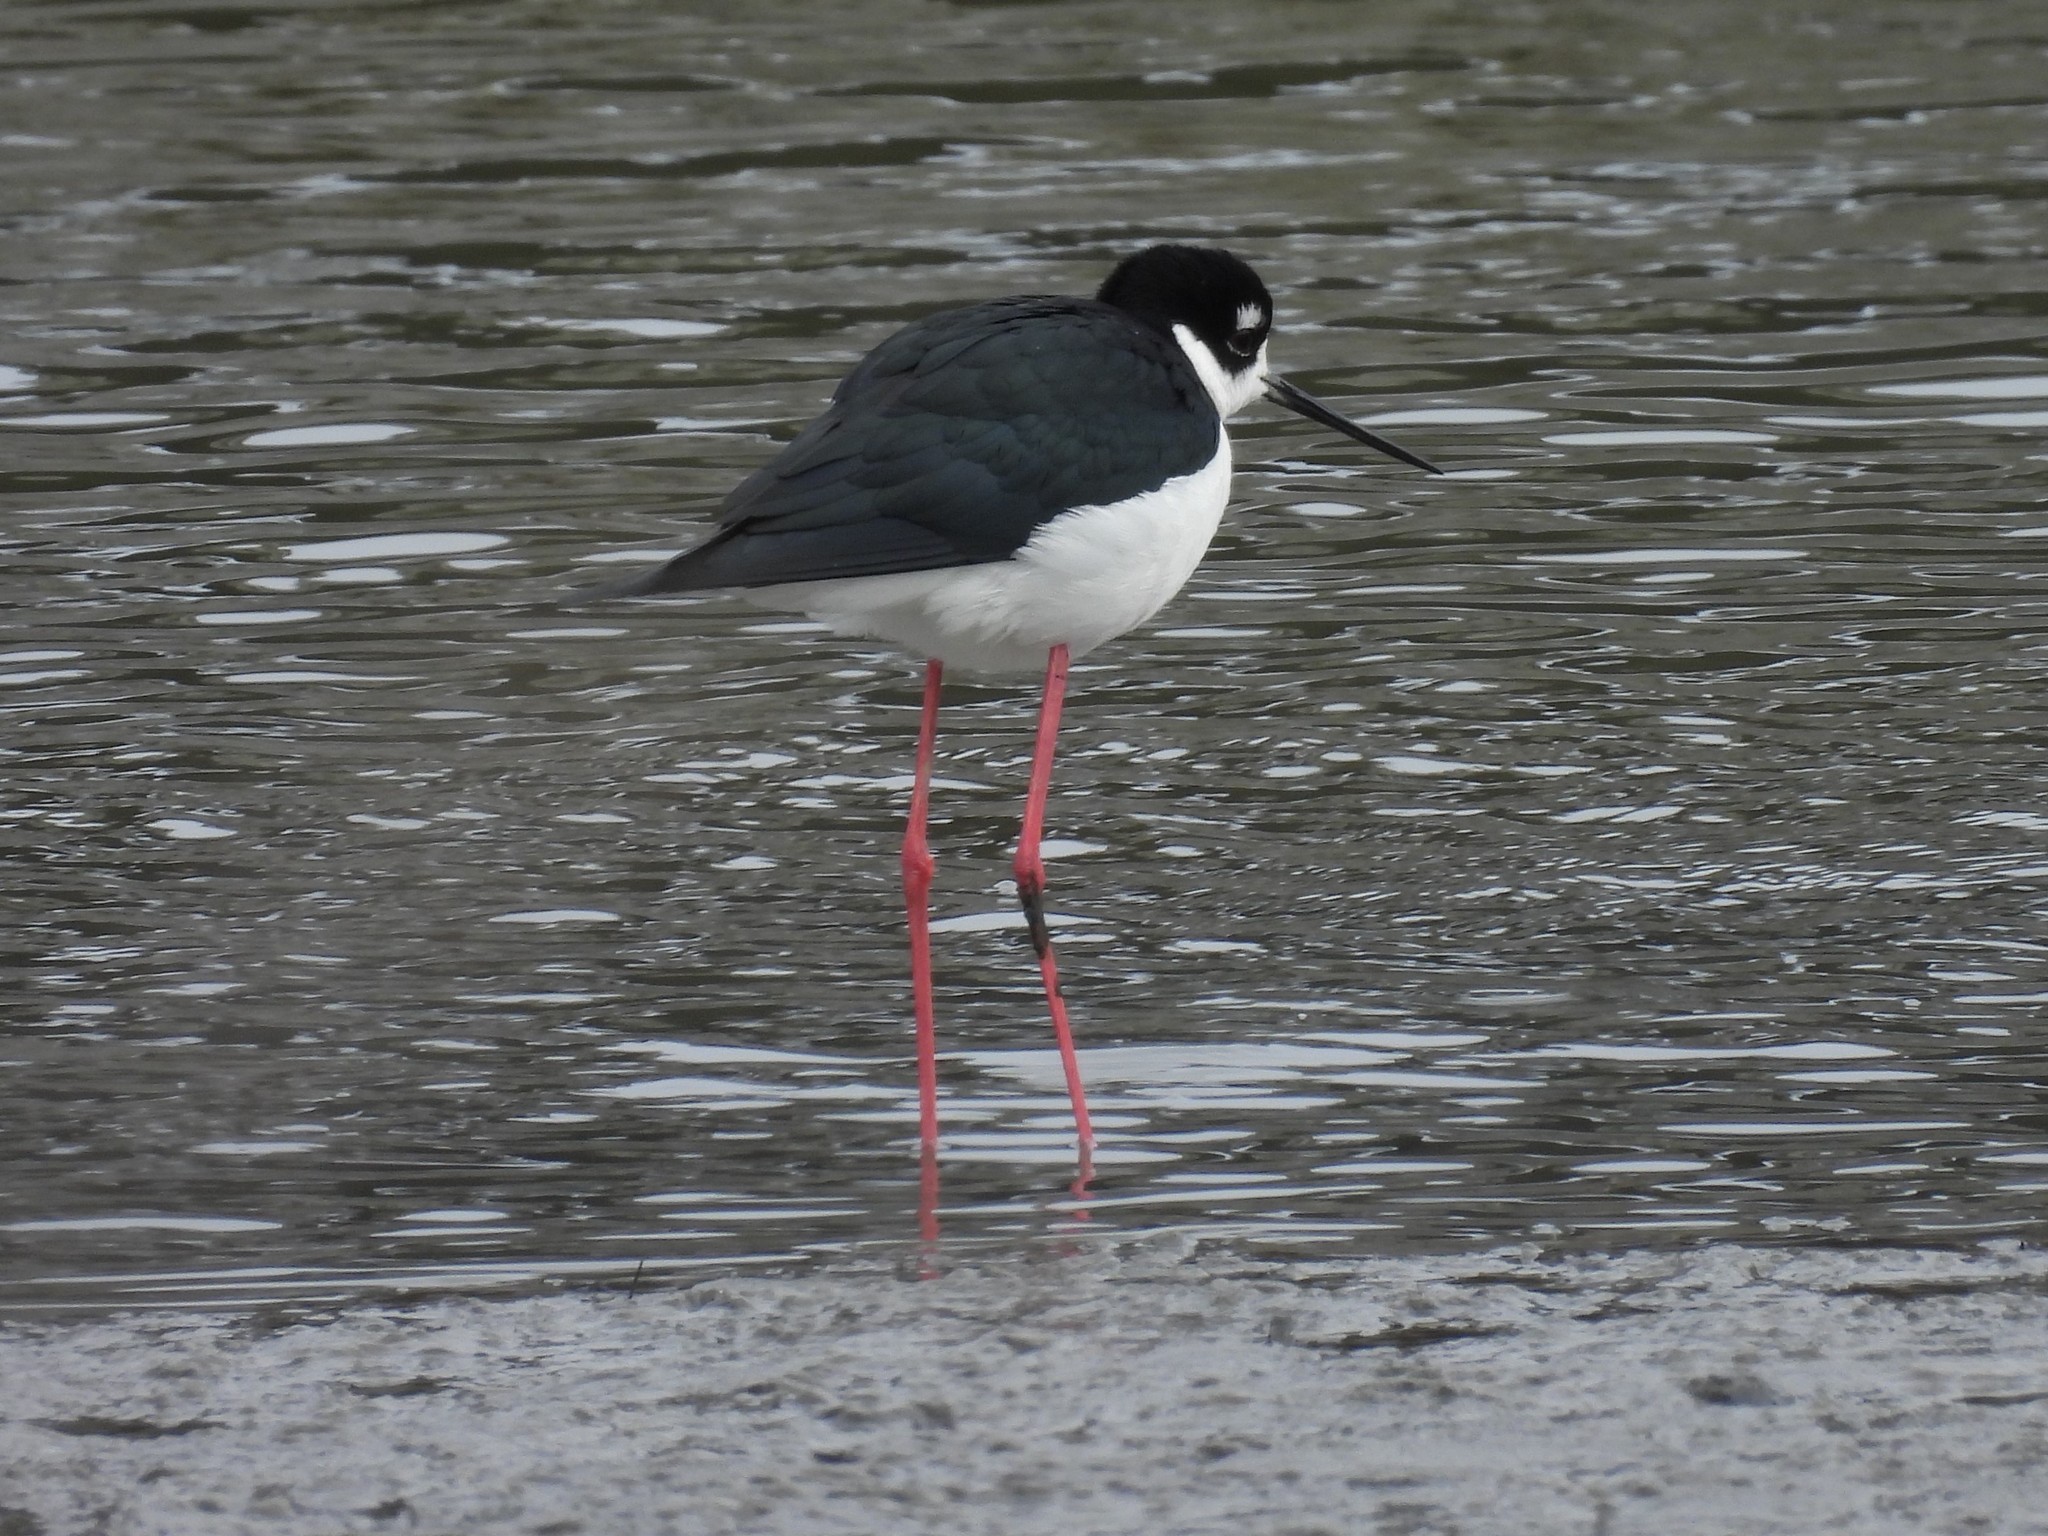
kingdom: Animalia
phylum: Chordata
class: Aves
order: Charadriiformes
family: Recurvirostridae
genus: Himantopus
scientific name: Himantopus mexicanus
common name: Black-necked stilt
